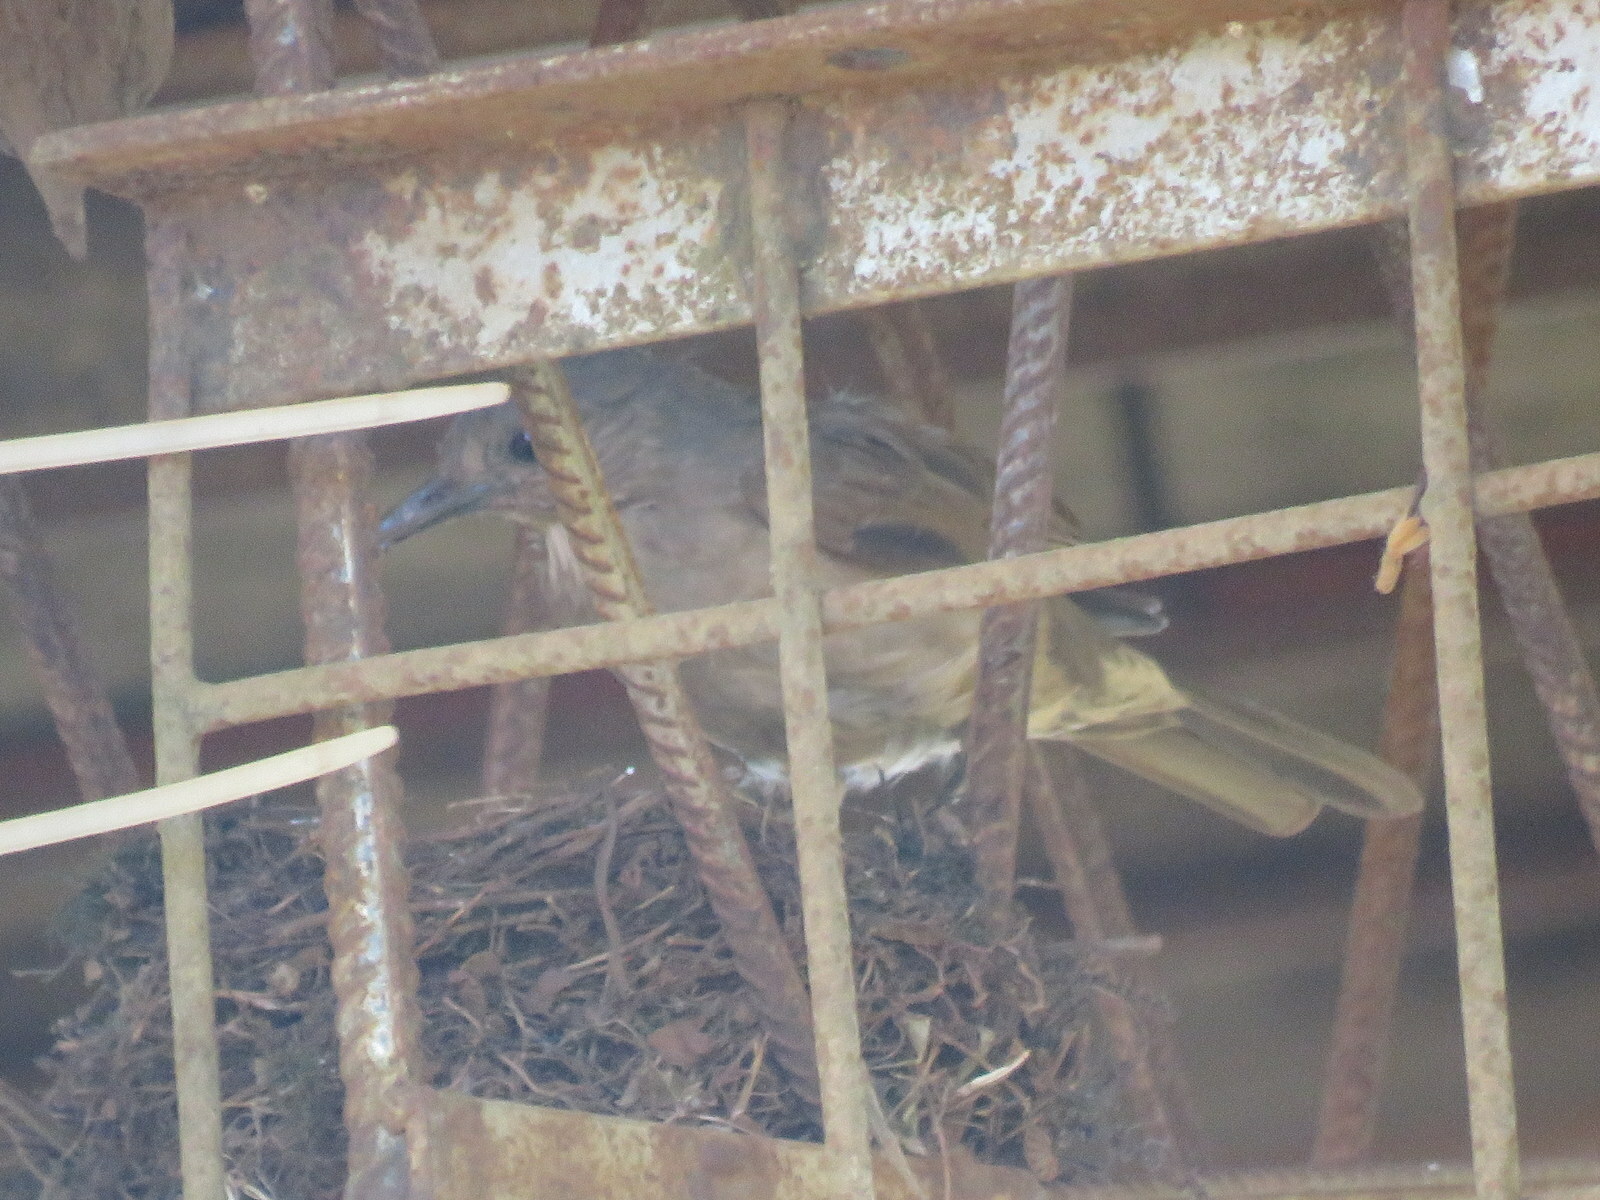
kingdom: Animalia
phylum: Chordata
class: Aves
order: Passeriformes
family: Turdidae
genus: Turdus
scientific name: Turdus leucomelas
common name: Pale-breasted thrush
